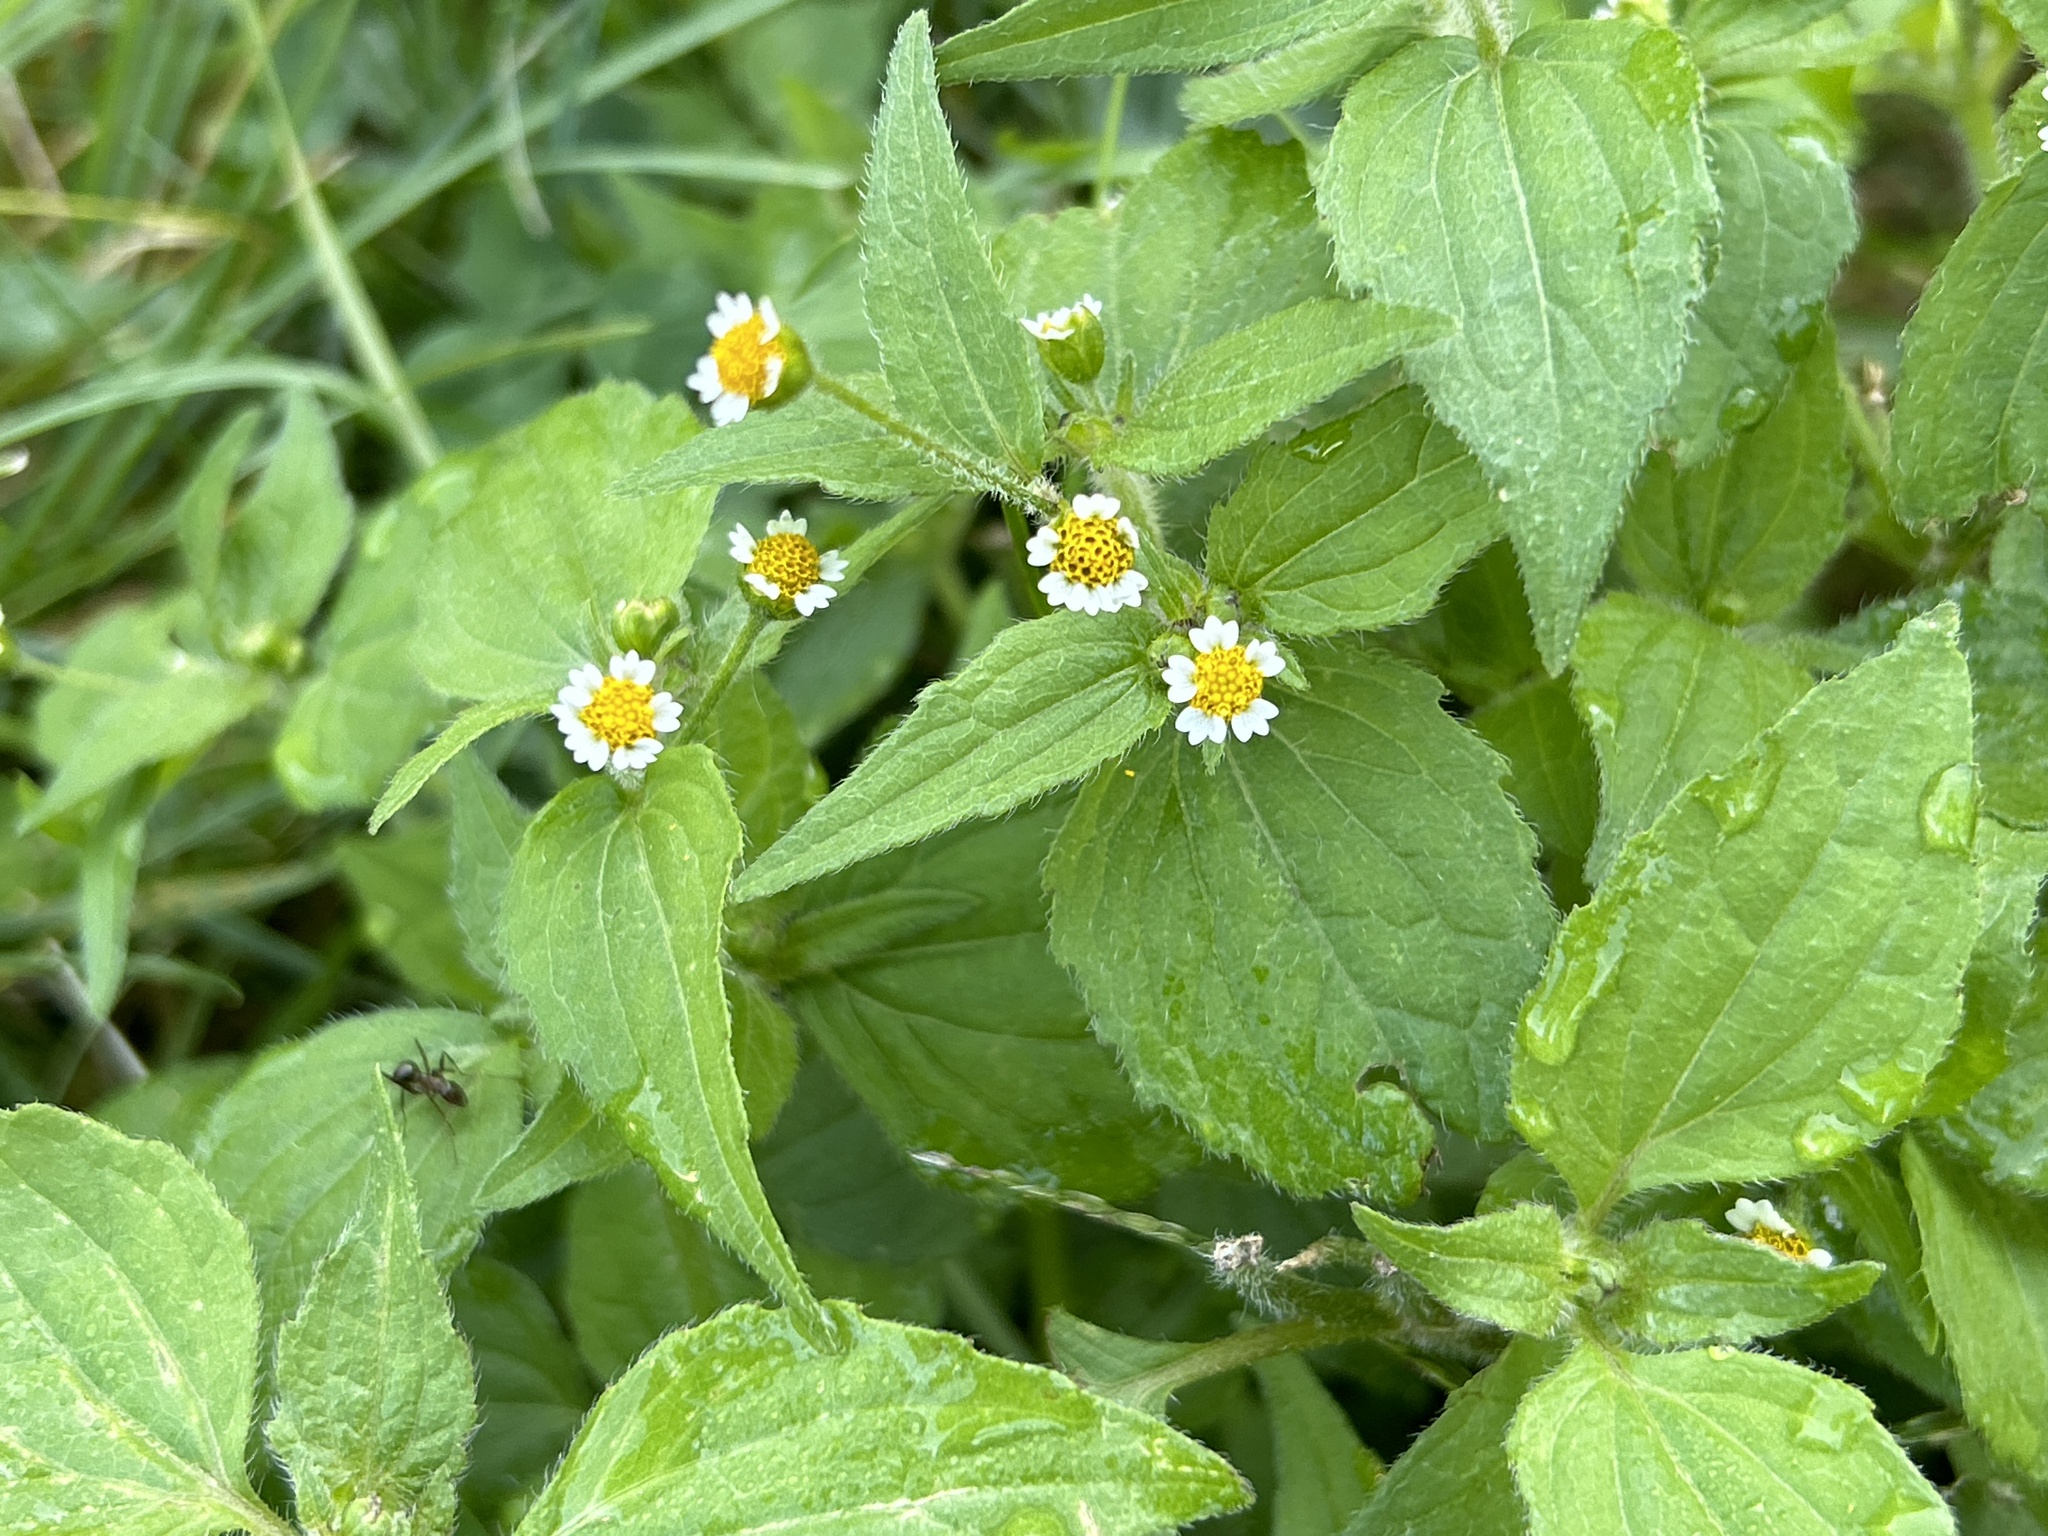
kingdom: Plantae
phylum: Tracheophyta
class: Magnoliopsida
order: Asterales
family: Asteraceae
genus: Galinsoga
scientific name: Galinsoga quadriradiata
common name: Shaggy soldier
